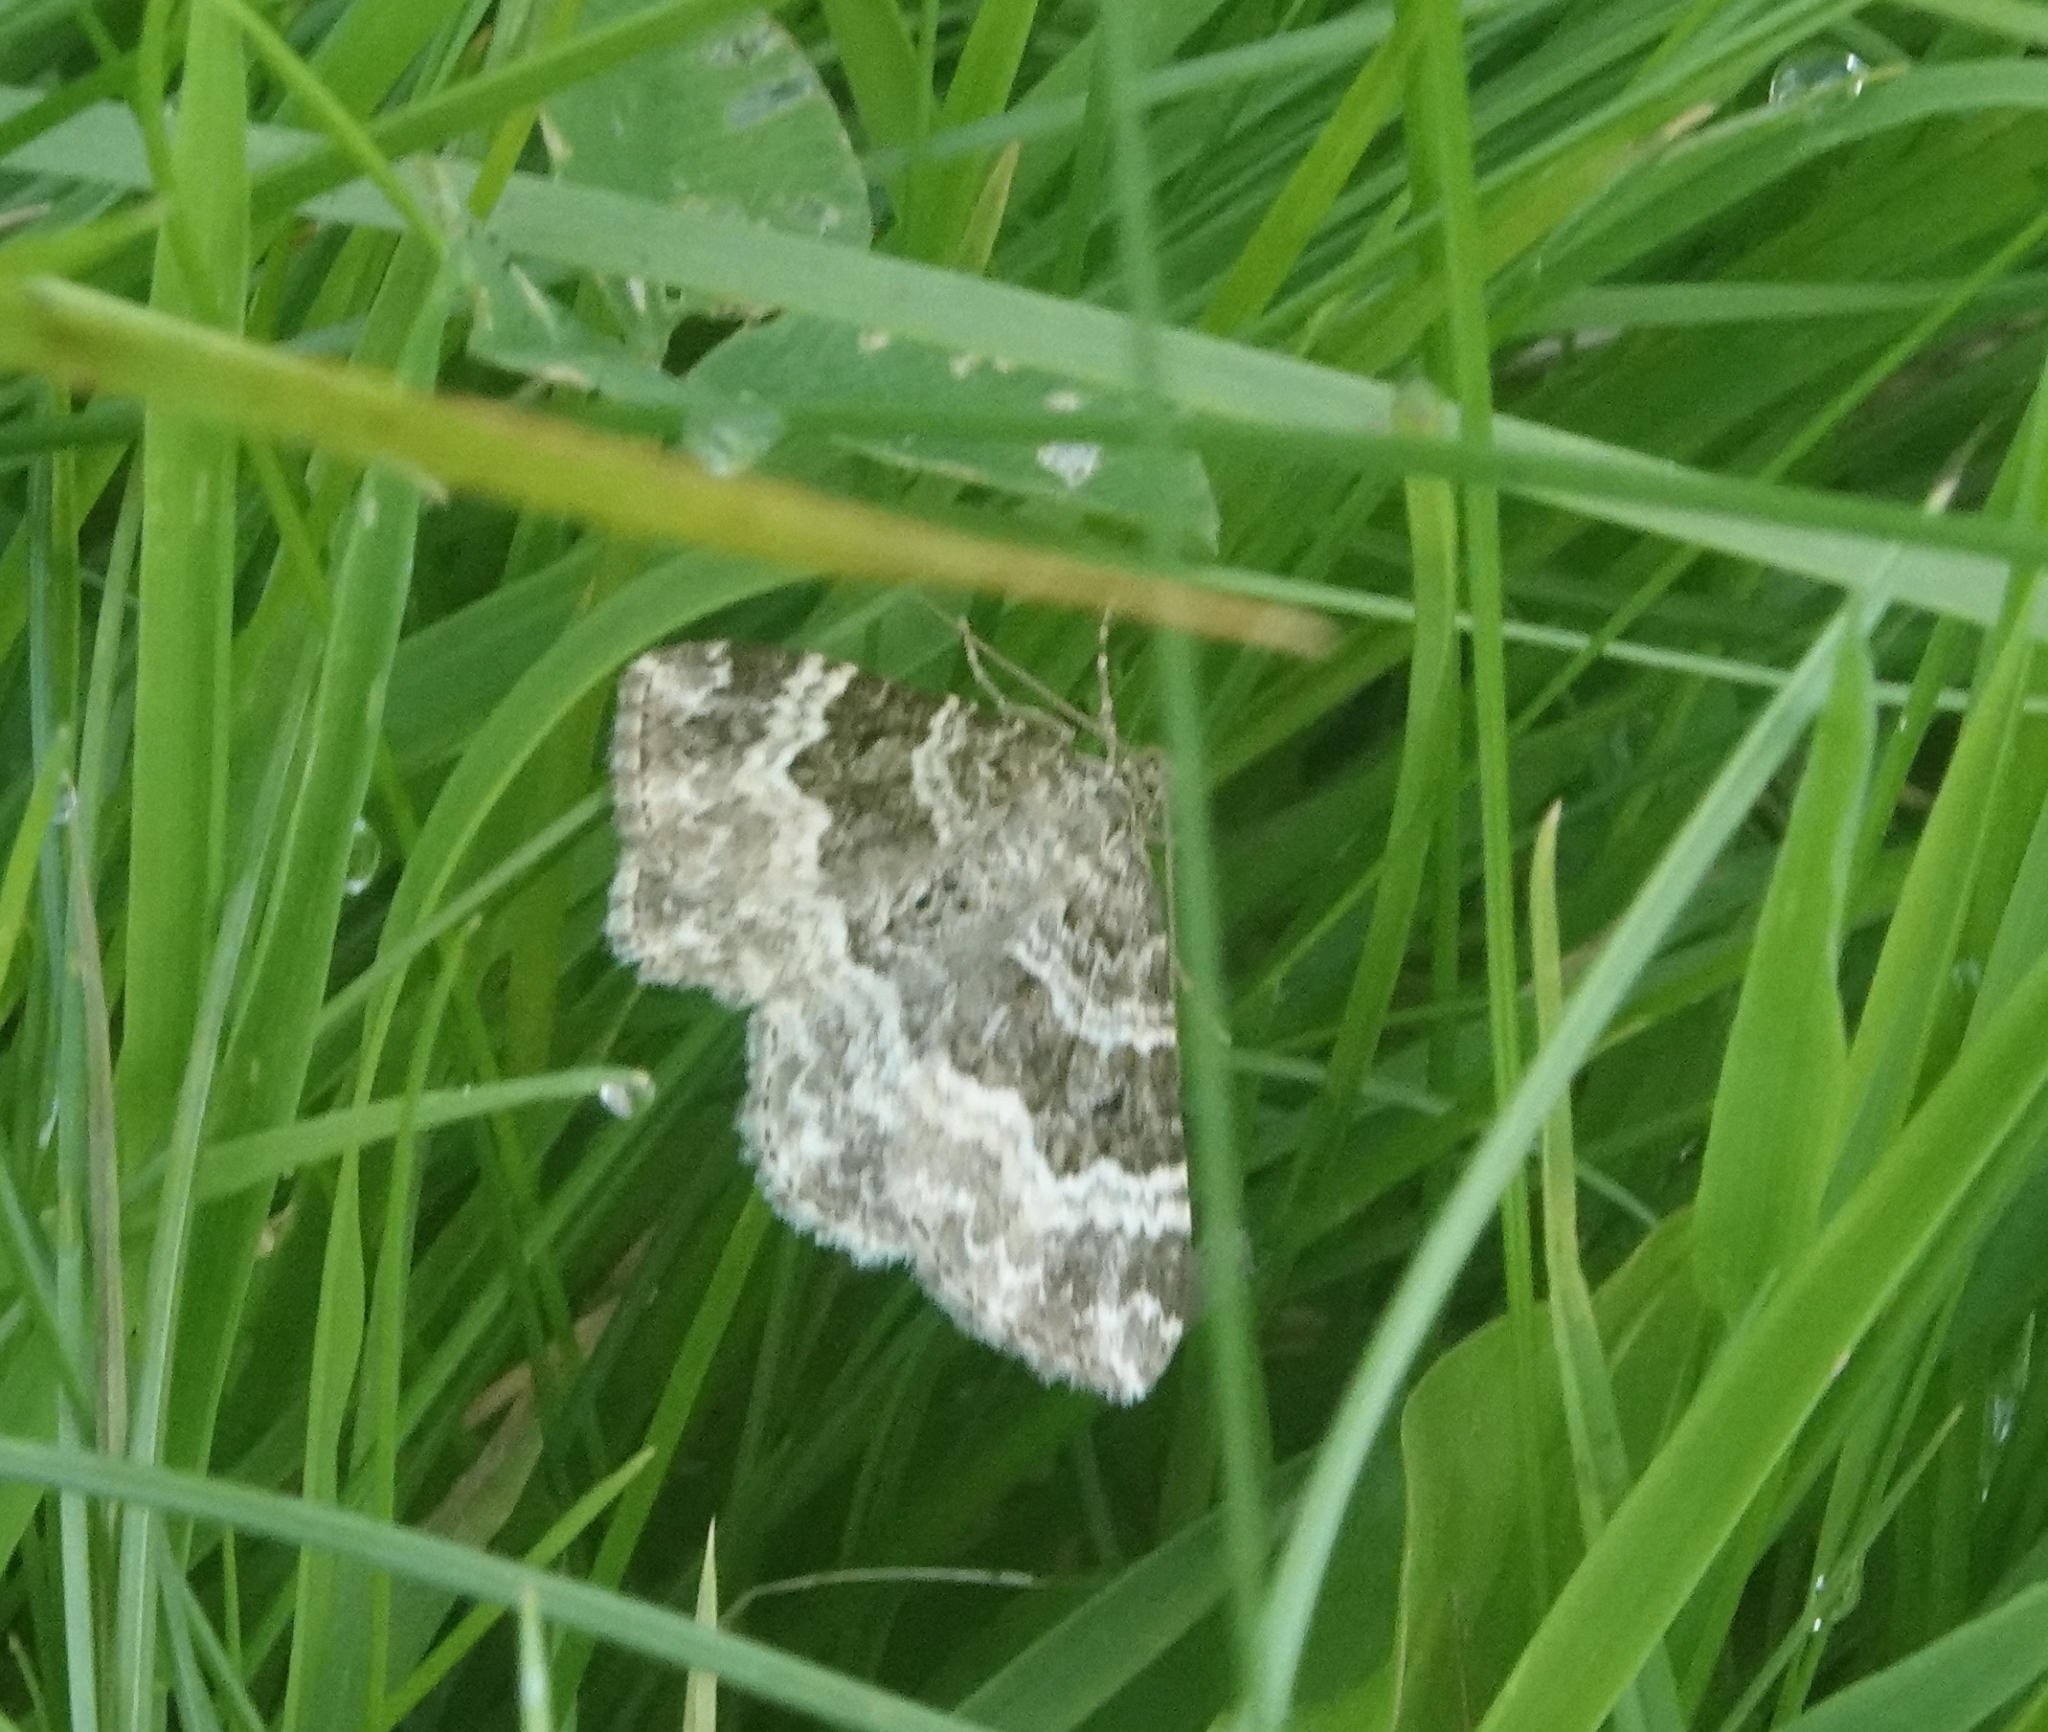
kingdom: Animalia
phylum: Arthropoda
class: Insecta
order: Lepidoptera
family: Geometridae
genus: Epirrhoe
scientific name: Epirrhoe alternata
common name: Common carpet
